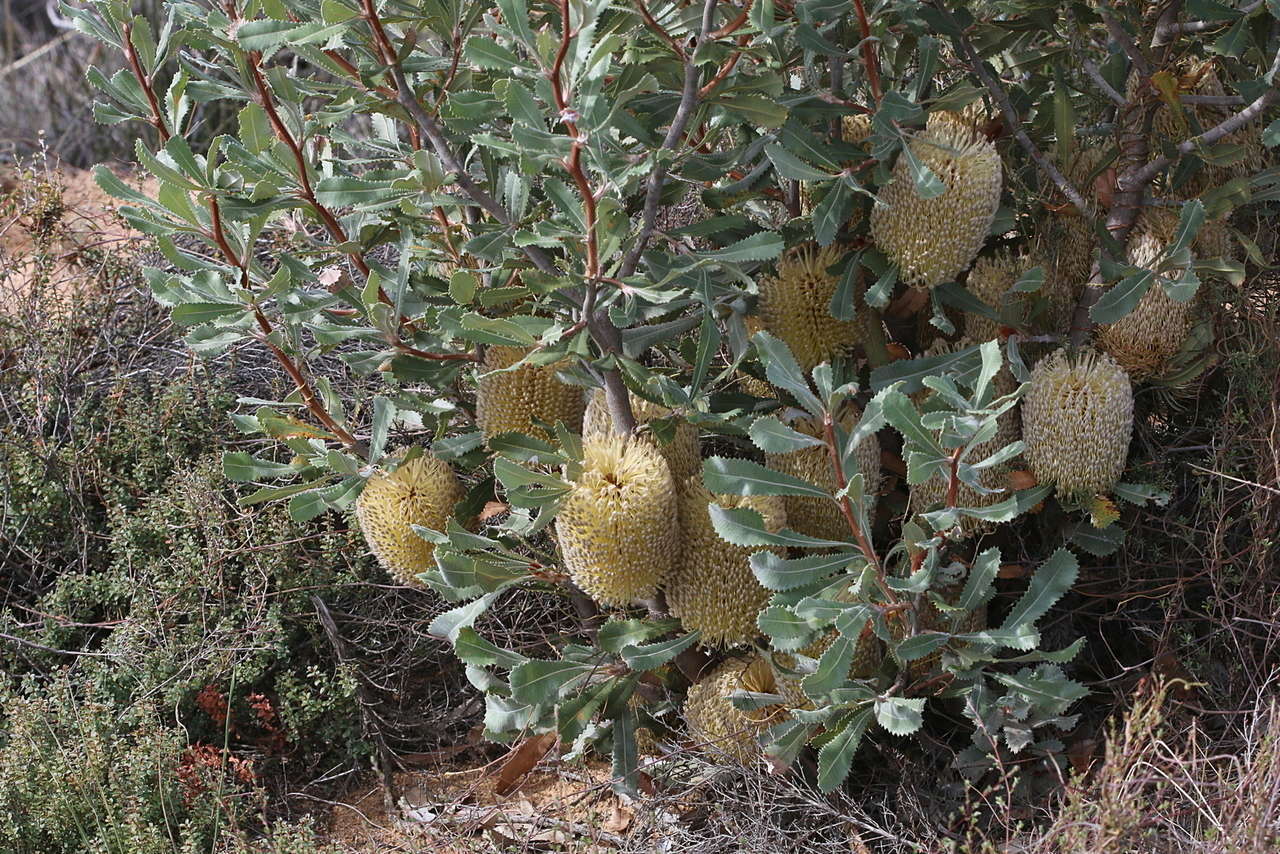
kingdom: Plantae
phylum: Tracheophyta
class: Magnoliopsida
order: Proteales
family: Proteaceae
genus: Banksia
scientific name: Banksia ornata
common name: Desert banksia
